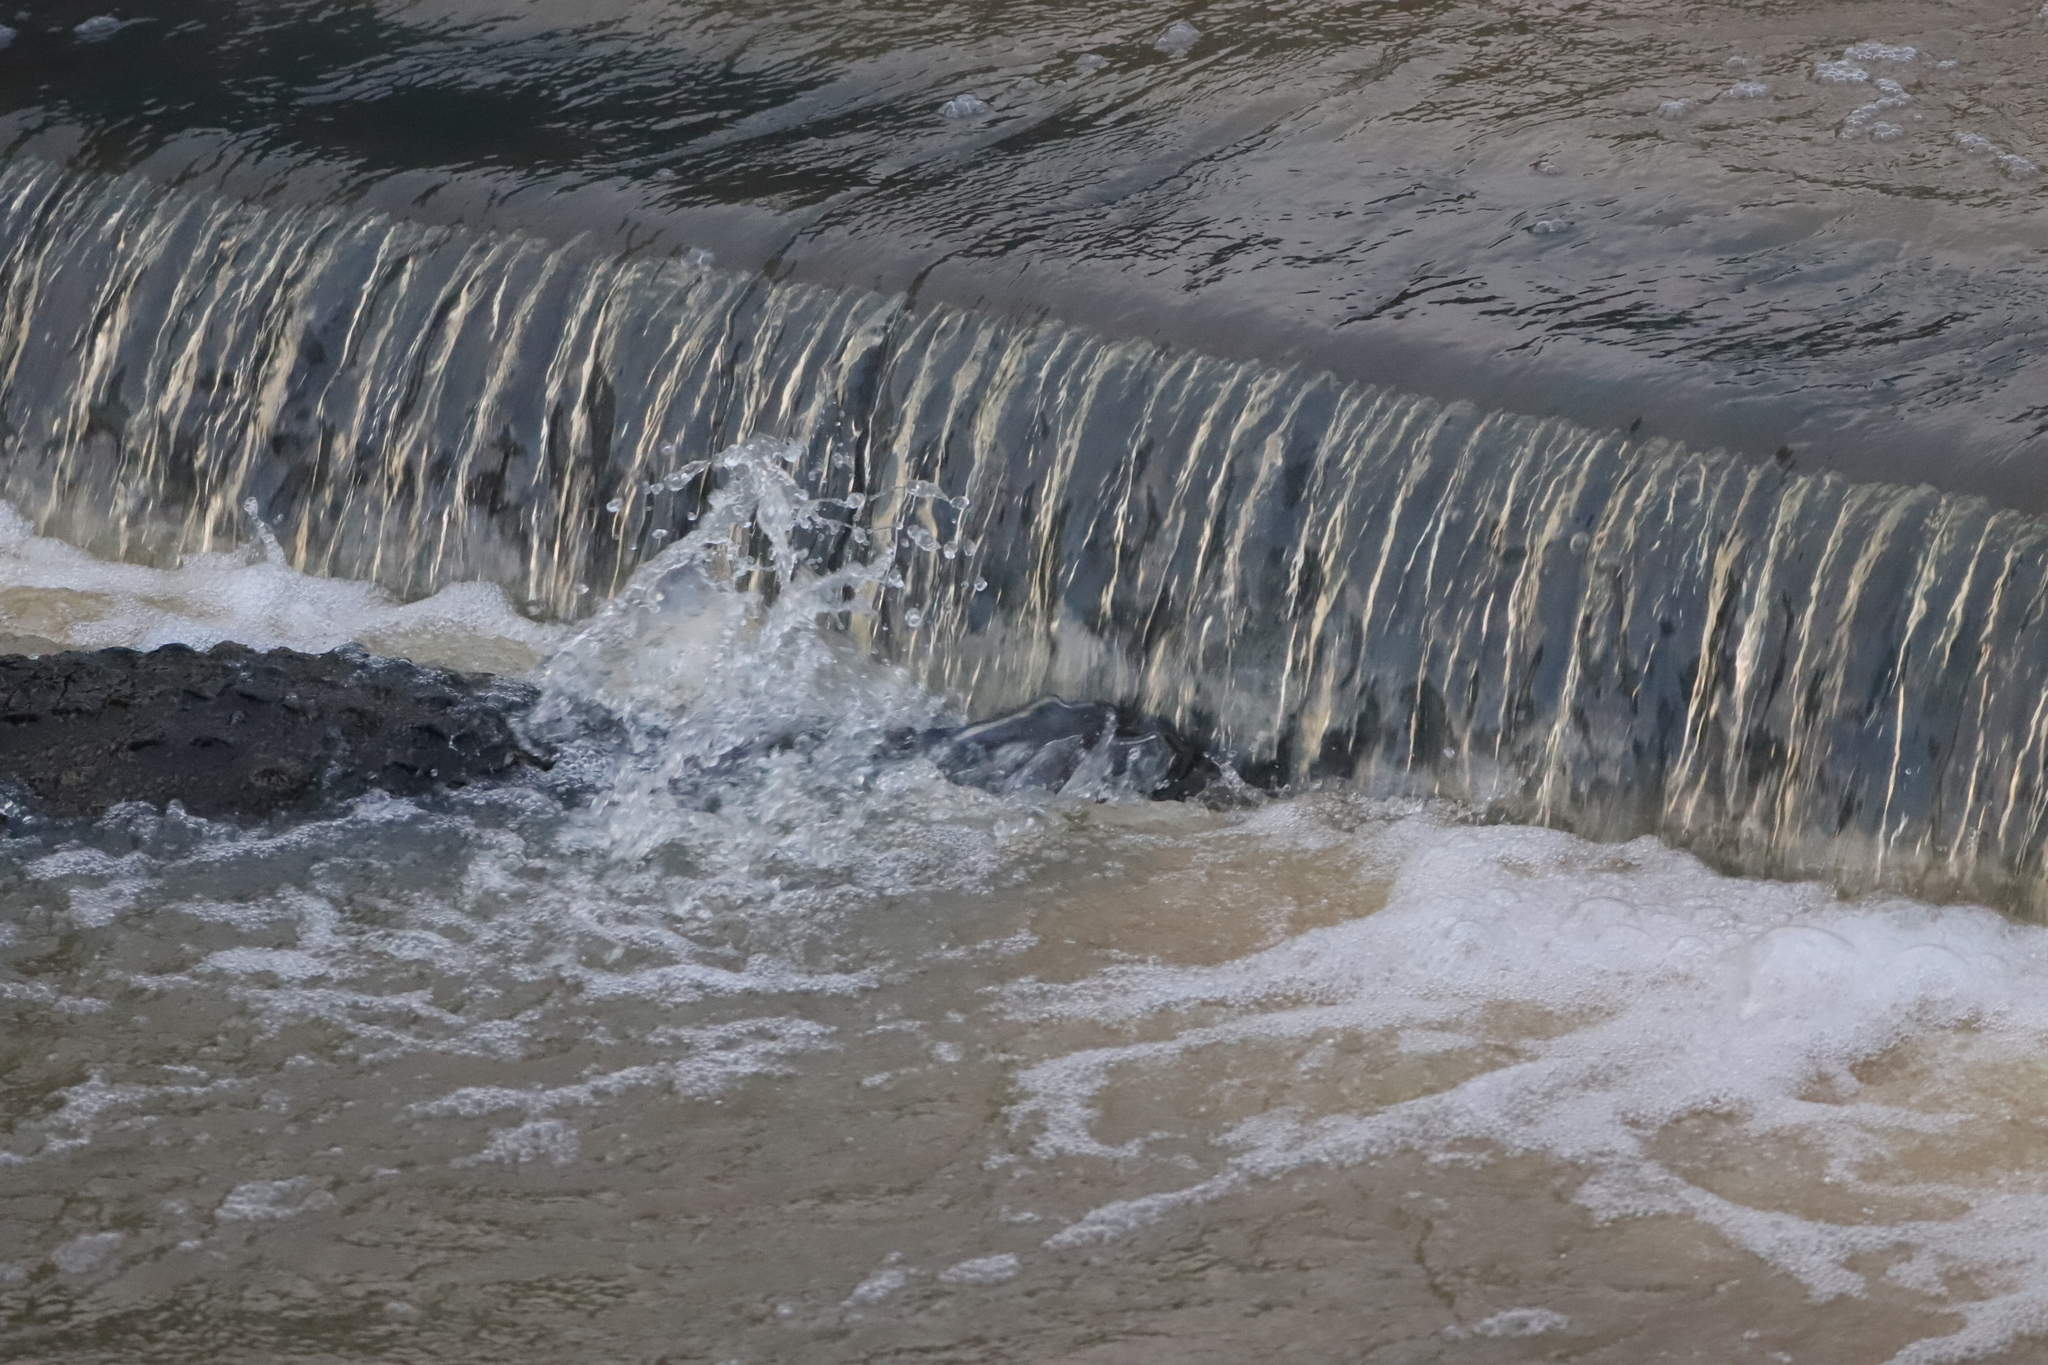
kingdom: Animalia
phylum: Chordata
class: Crocodylia
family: Crocodylidae
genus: Crocodylus
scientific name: Crocodylus palustris
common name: Mugger crocodile
